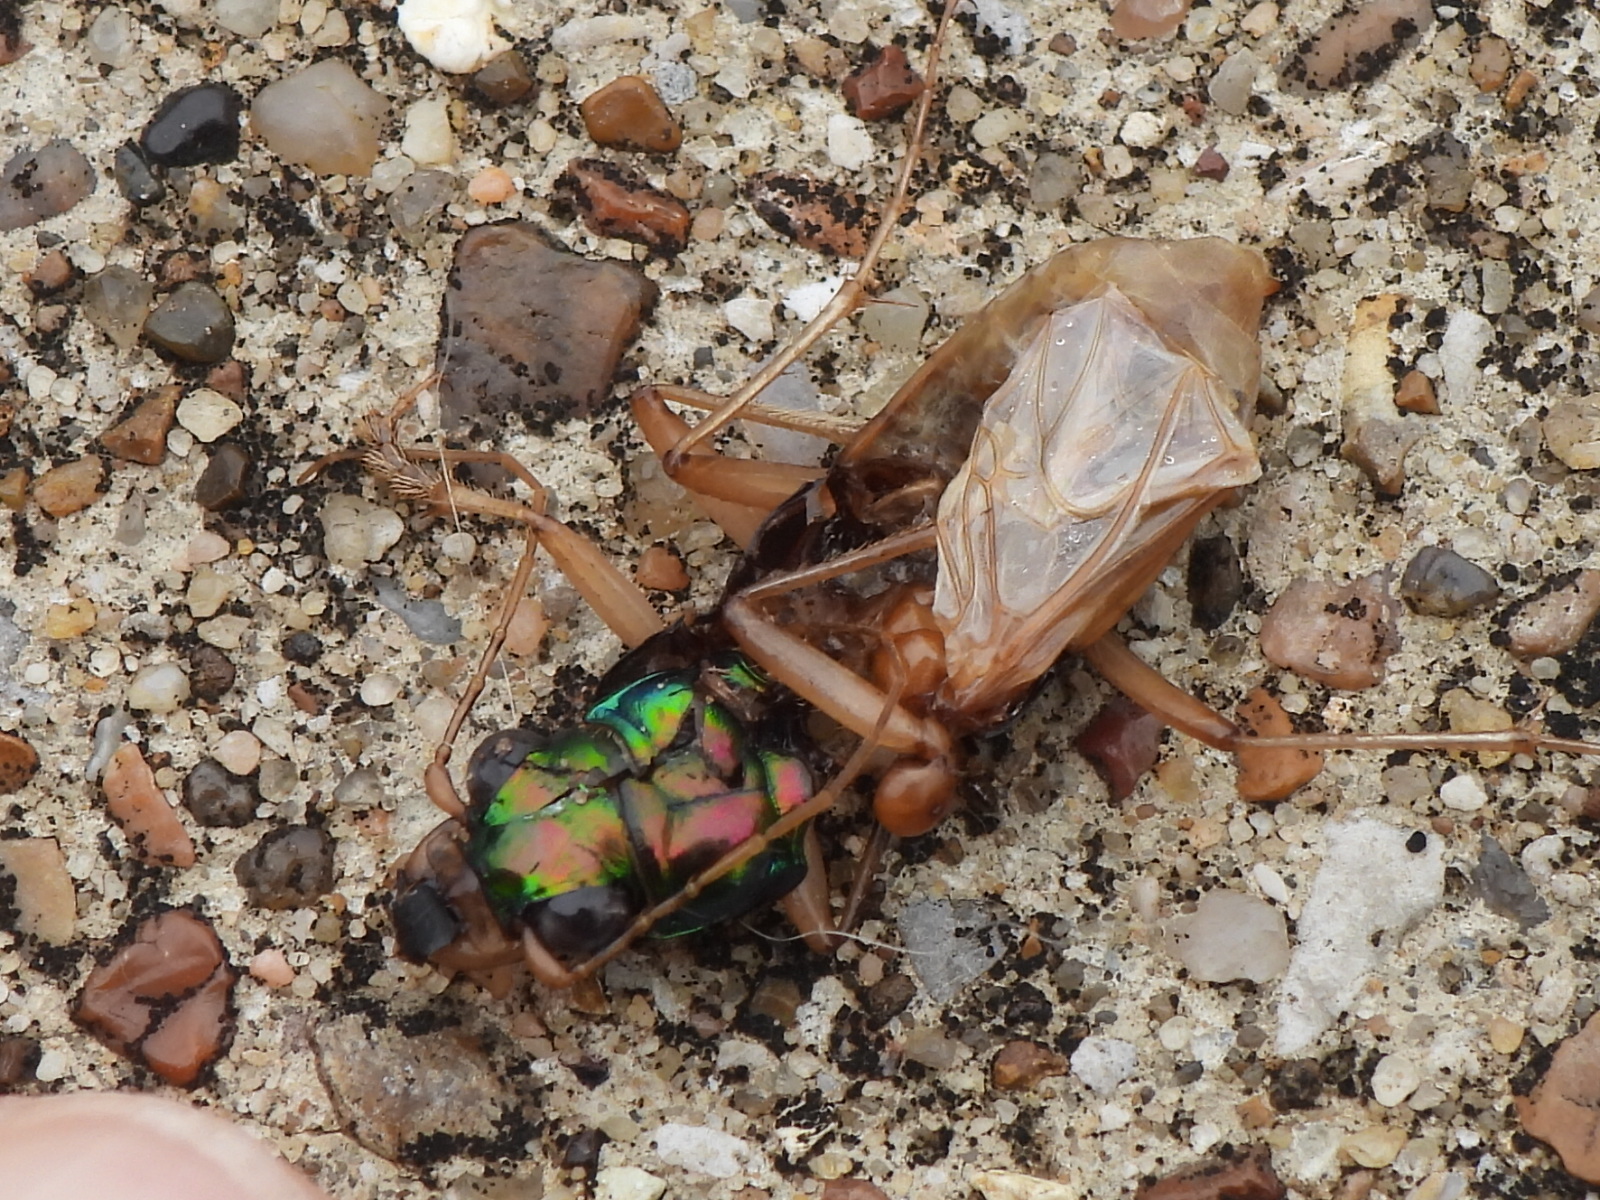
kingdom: Animalia
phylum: Arthropoda
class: Insecta
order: Coleoptera
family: Carabidae
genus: Tetracha
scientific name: Tetracha carolina
